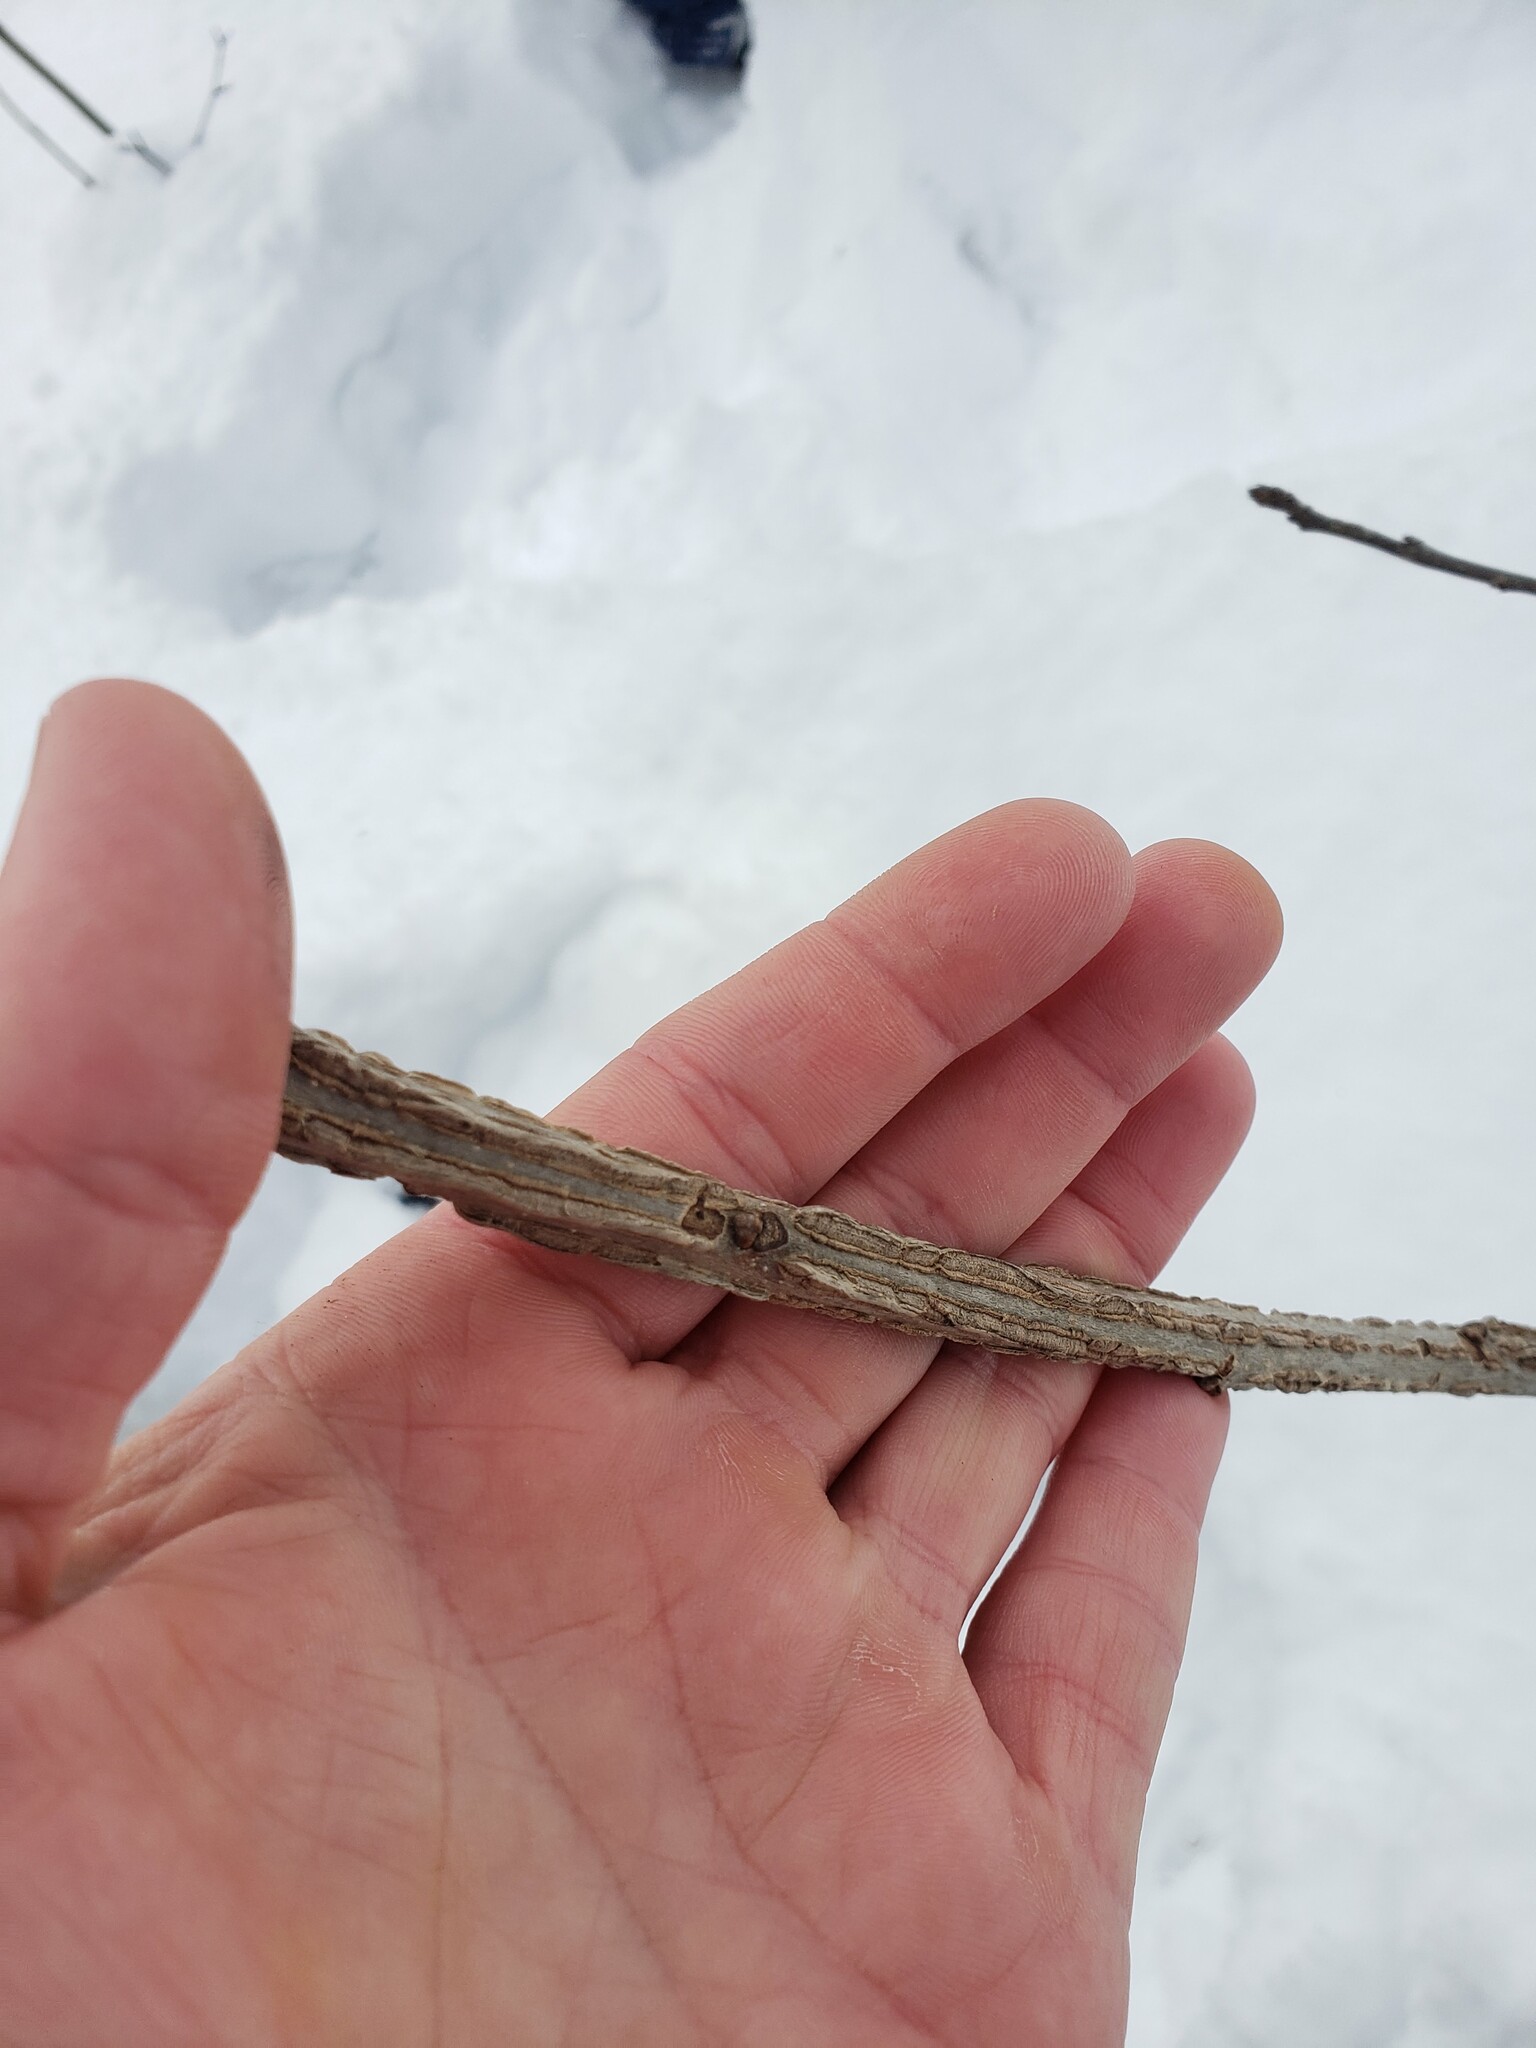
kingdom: Plantae
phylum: Tracheophyta
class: Magnoliopsida
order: Fagales
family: Fagaceae
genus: Quercus
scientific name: Quercus macrocarpa
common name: Bur oak
